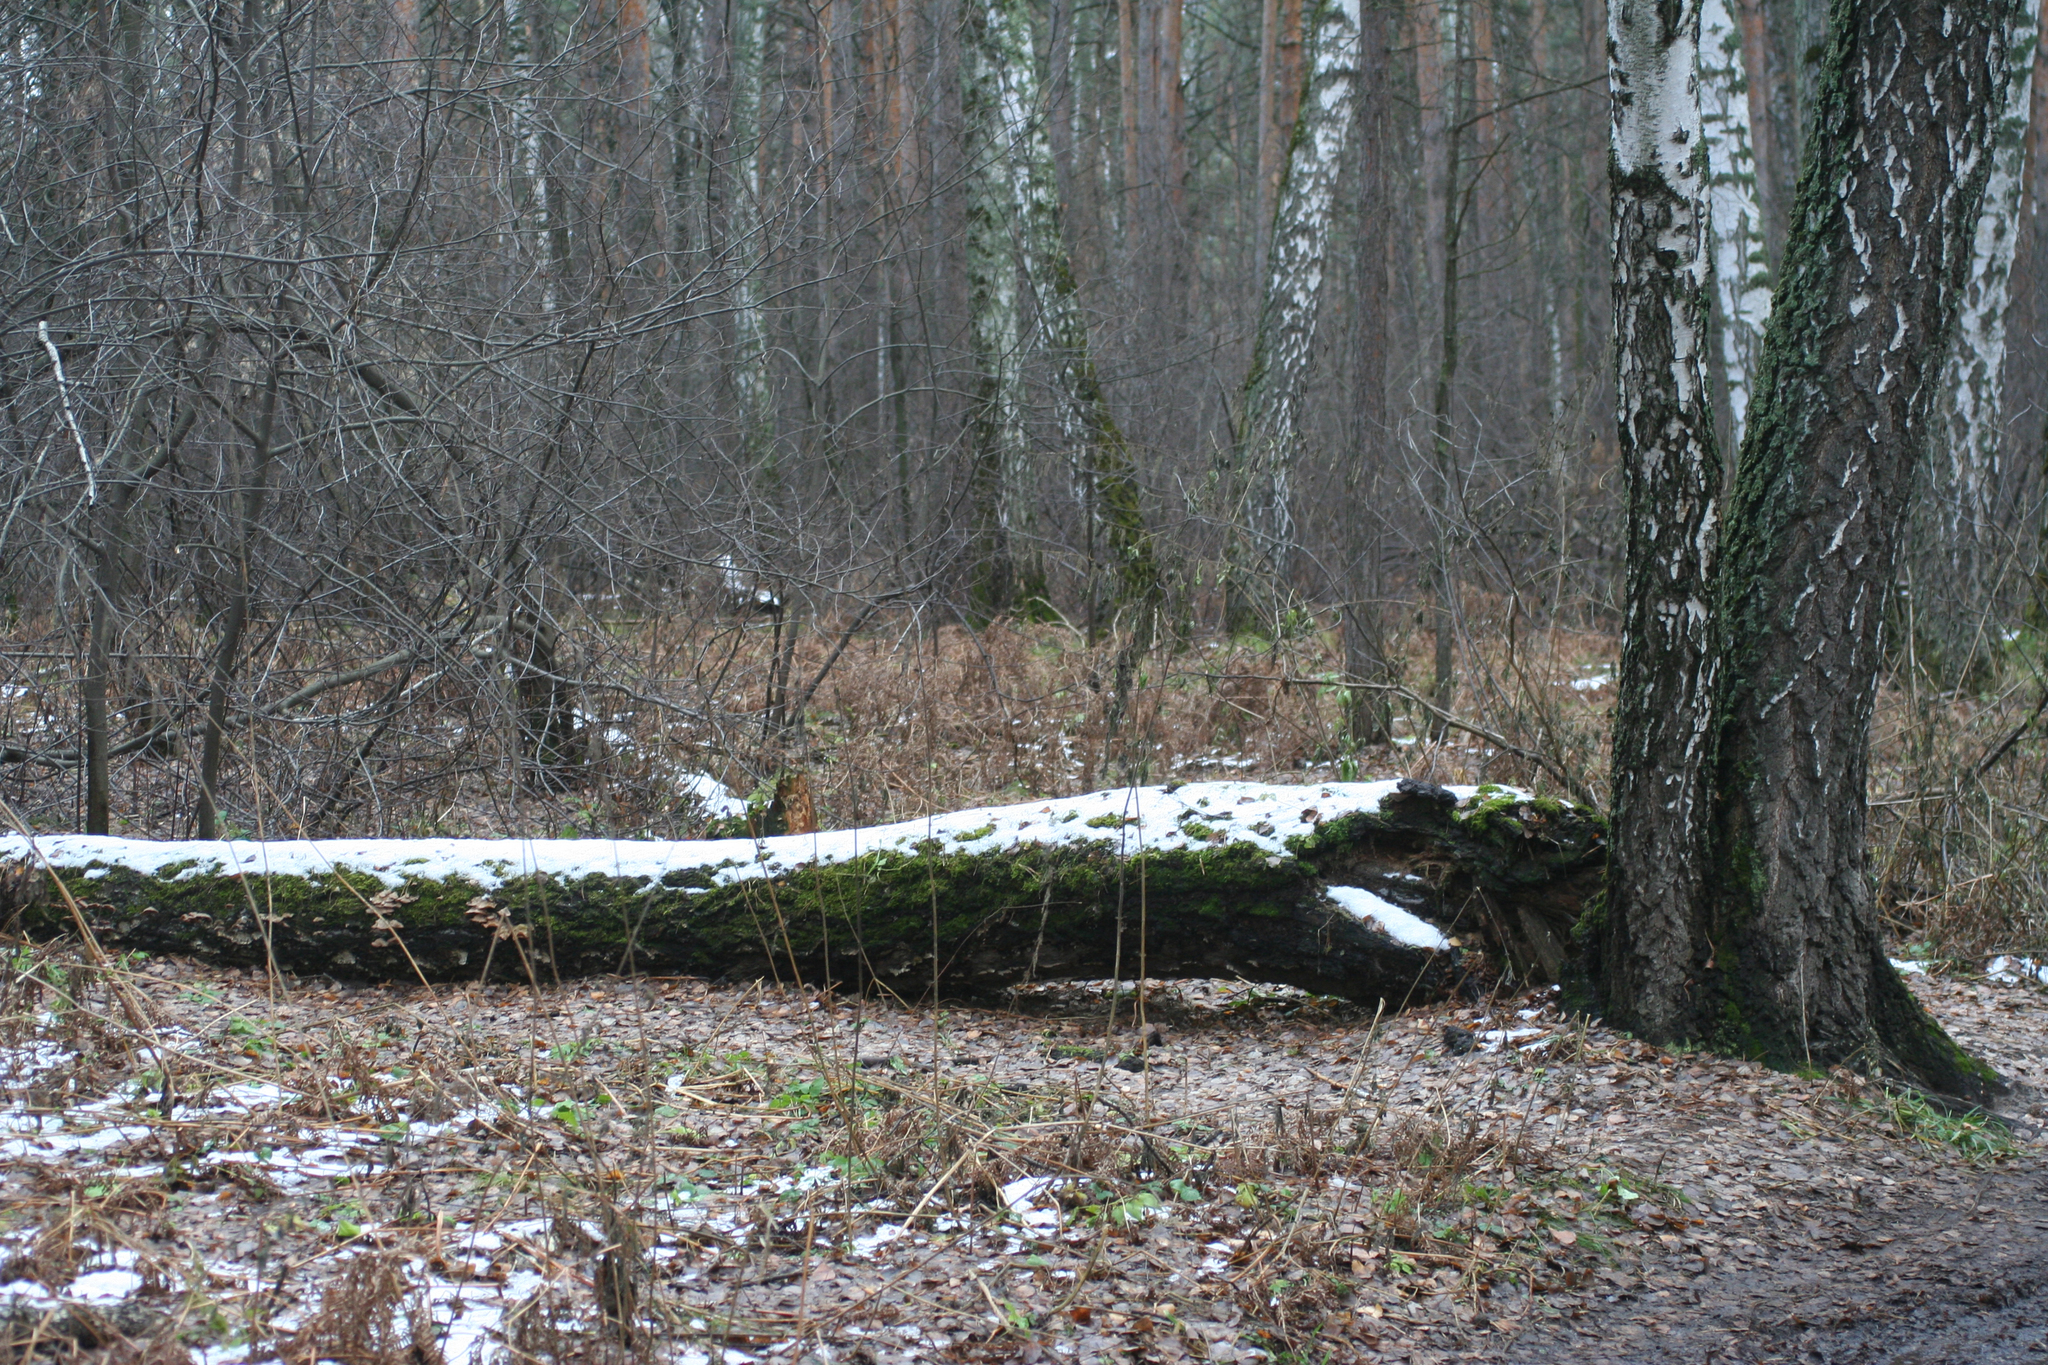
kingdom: Plantae
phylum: Tracheophyta
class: Magnoliopsida
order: Fagales
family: Betulaceae
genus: Betula
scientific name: Betula pendula
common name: Silver birch
